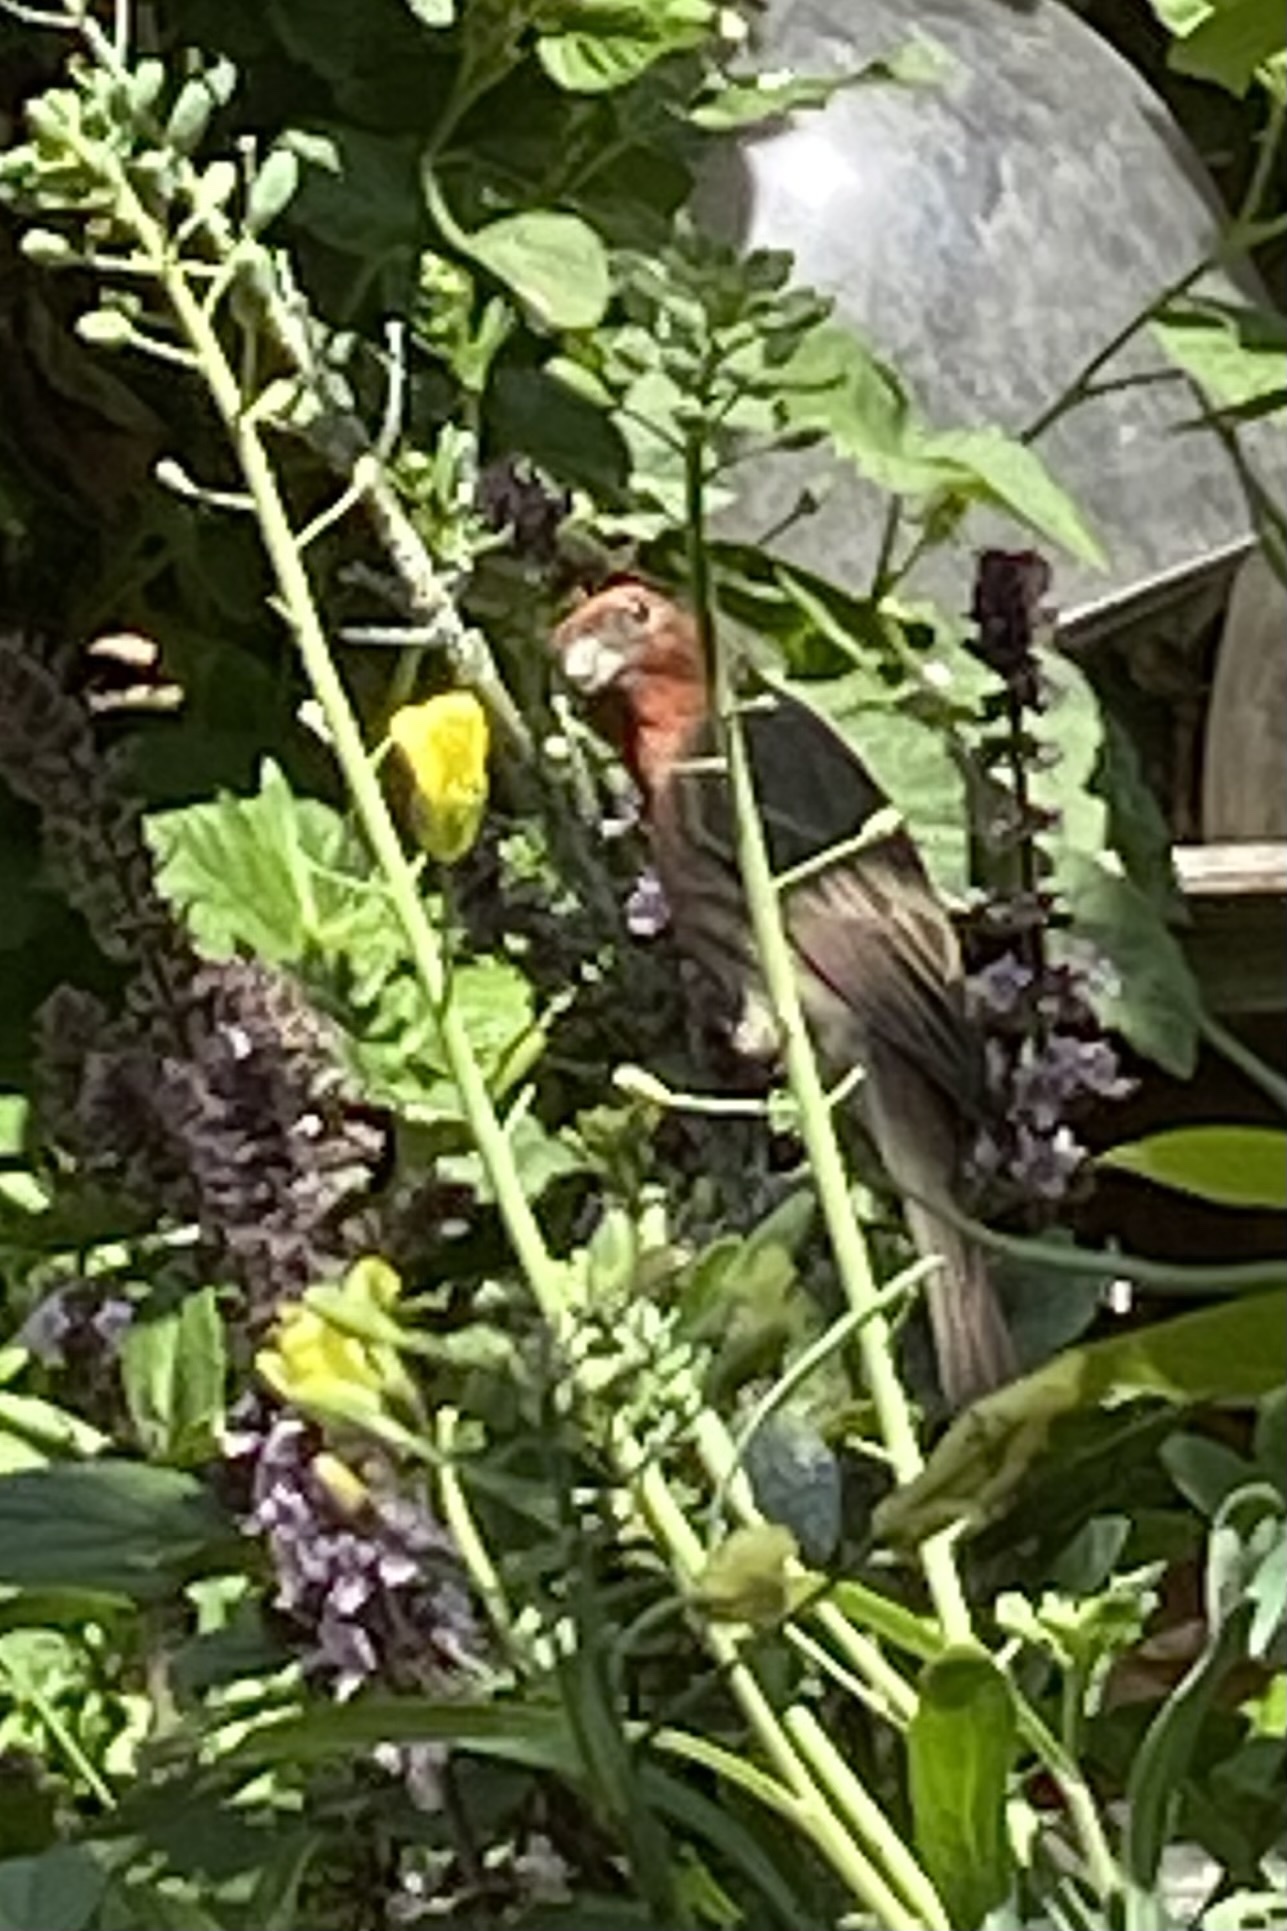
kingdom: Animalia
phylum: Chordata
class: Aves
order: Passeriformes
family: Fringillidae
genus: Haemorhous
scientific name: Haemorhous mexicanus
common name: House finch
